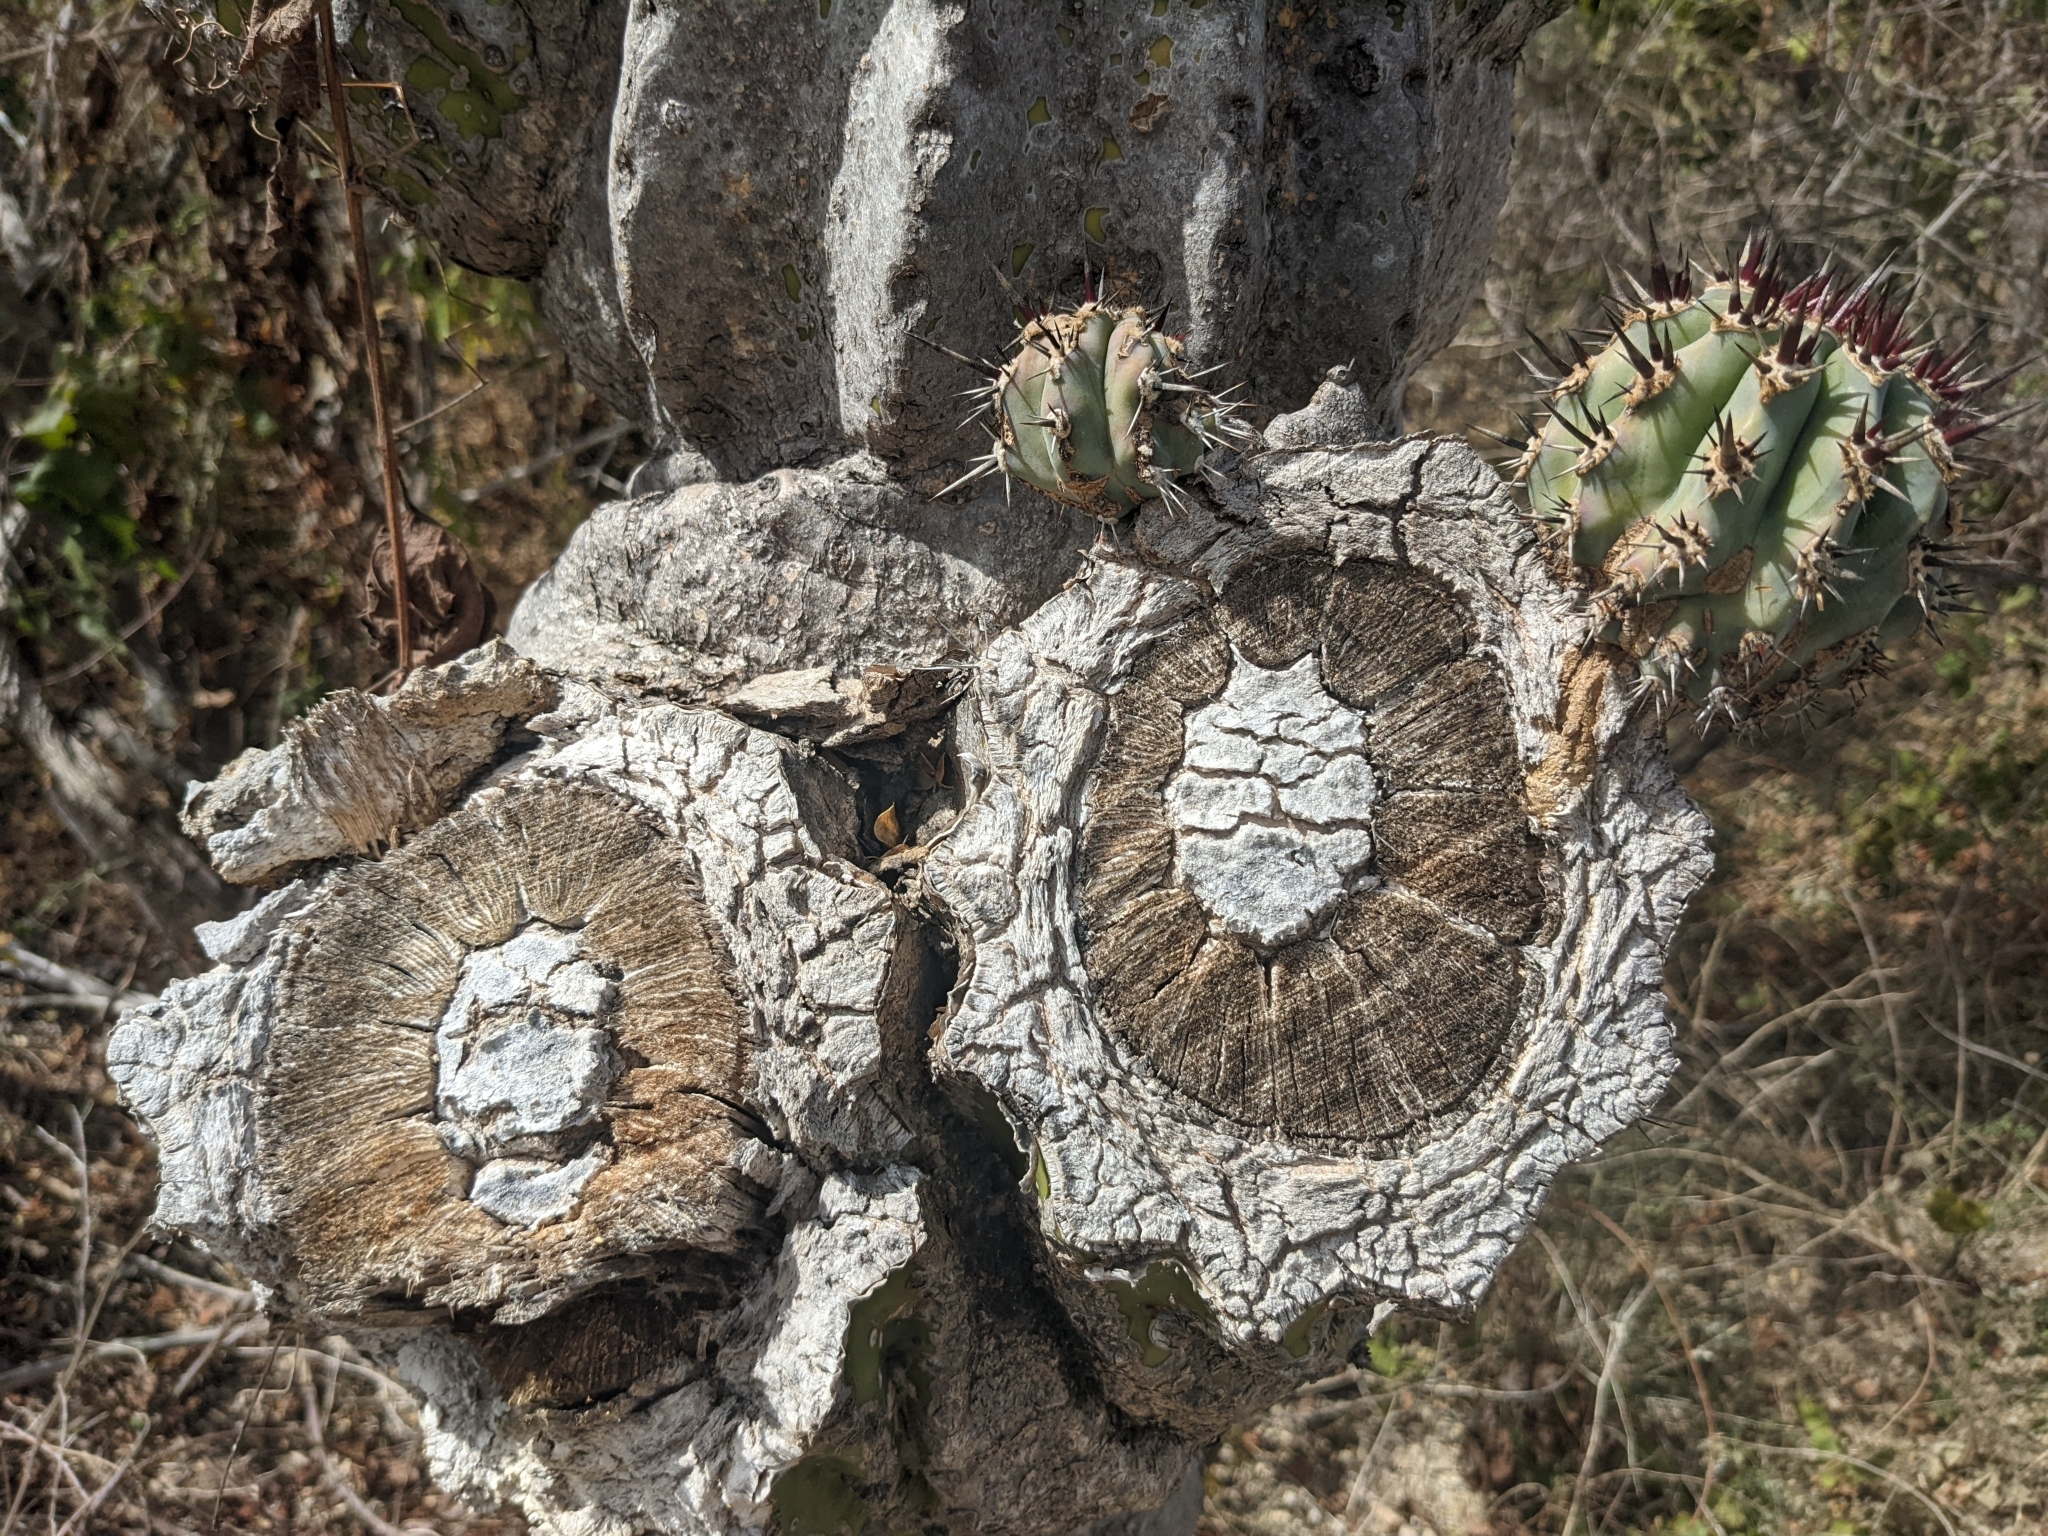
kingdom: Plantae
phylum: Tracheophyta
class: Magnoliopsida
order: Caryophyllales
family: Cactaceae
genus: Pachycereus
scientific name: Pachycereus pecten-aboriginum
